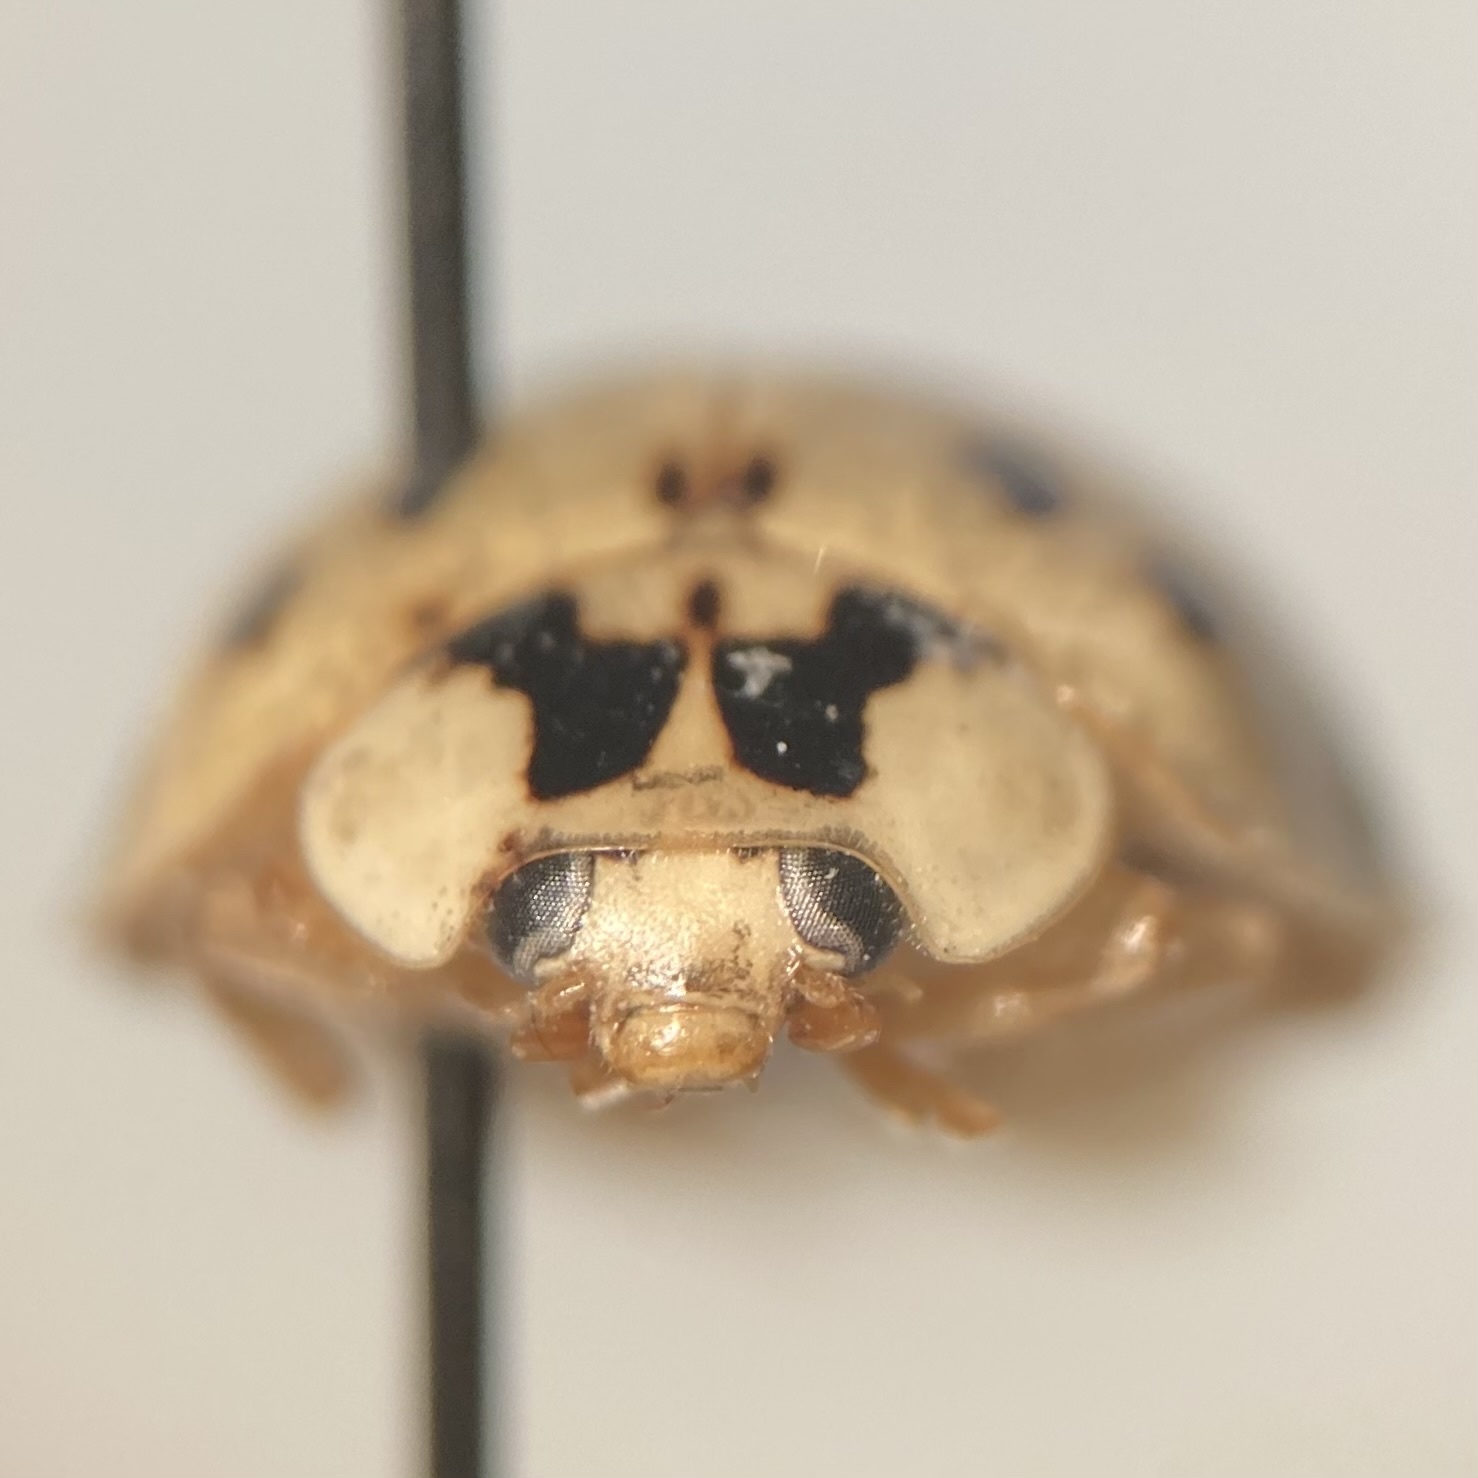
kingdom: Animalia
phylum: Arthropoda
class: Insecta
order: Coleoptera
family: Coccinellidae
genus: Harmonia
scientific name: Harmonia axyridis
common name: Harlequin ladybird
